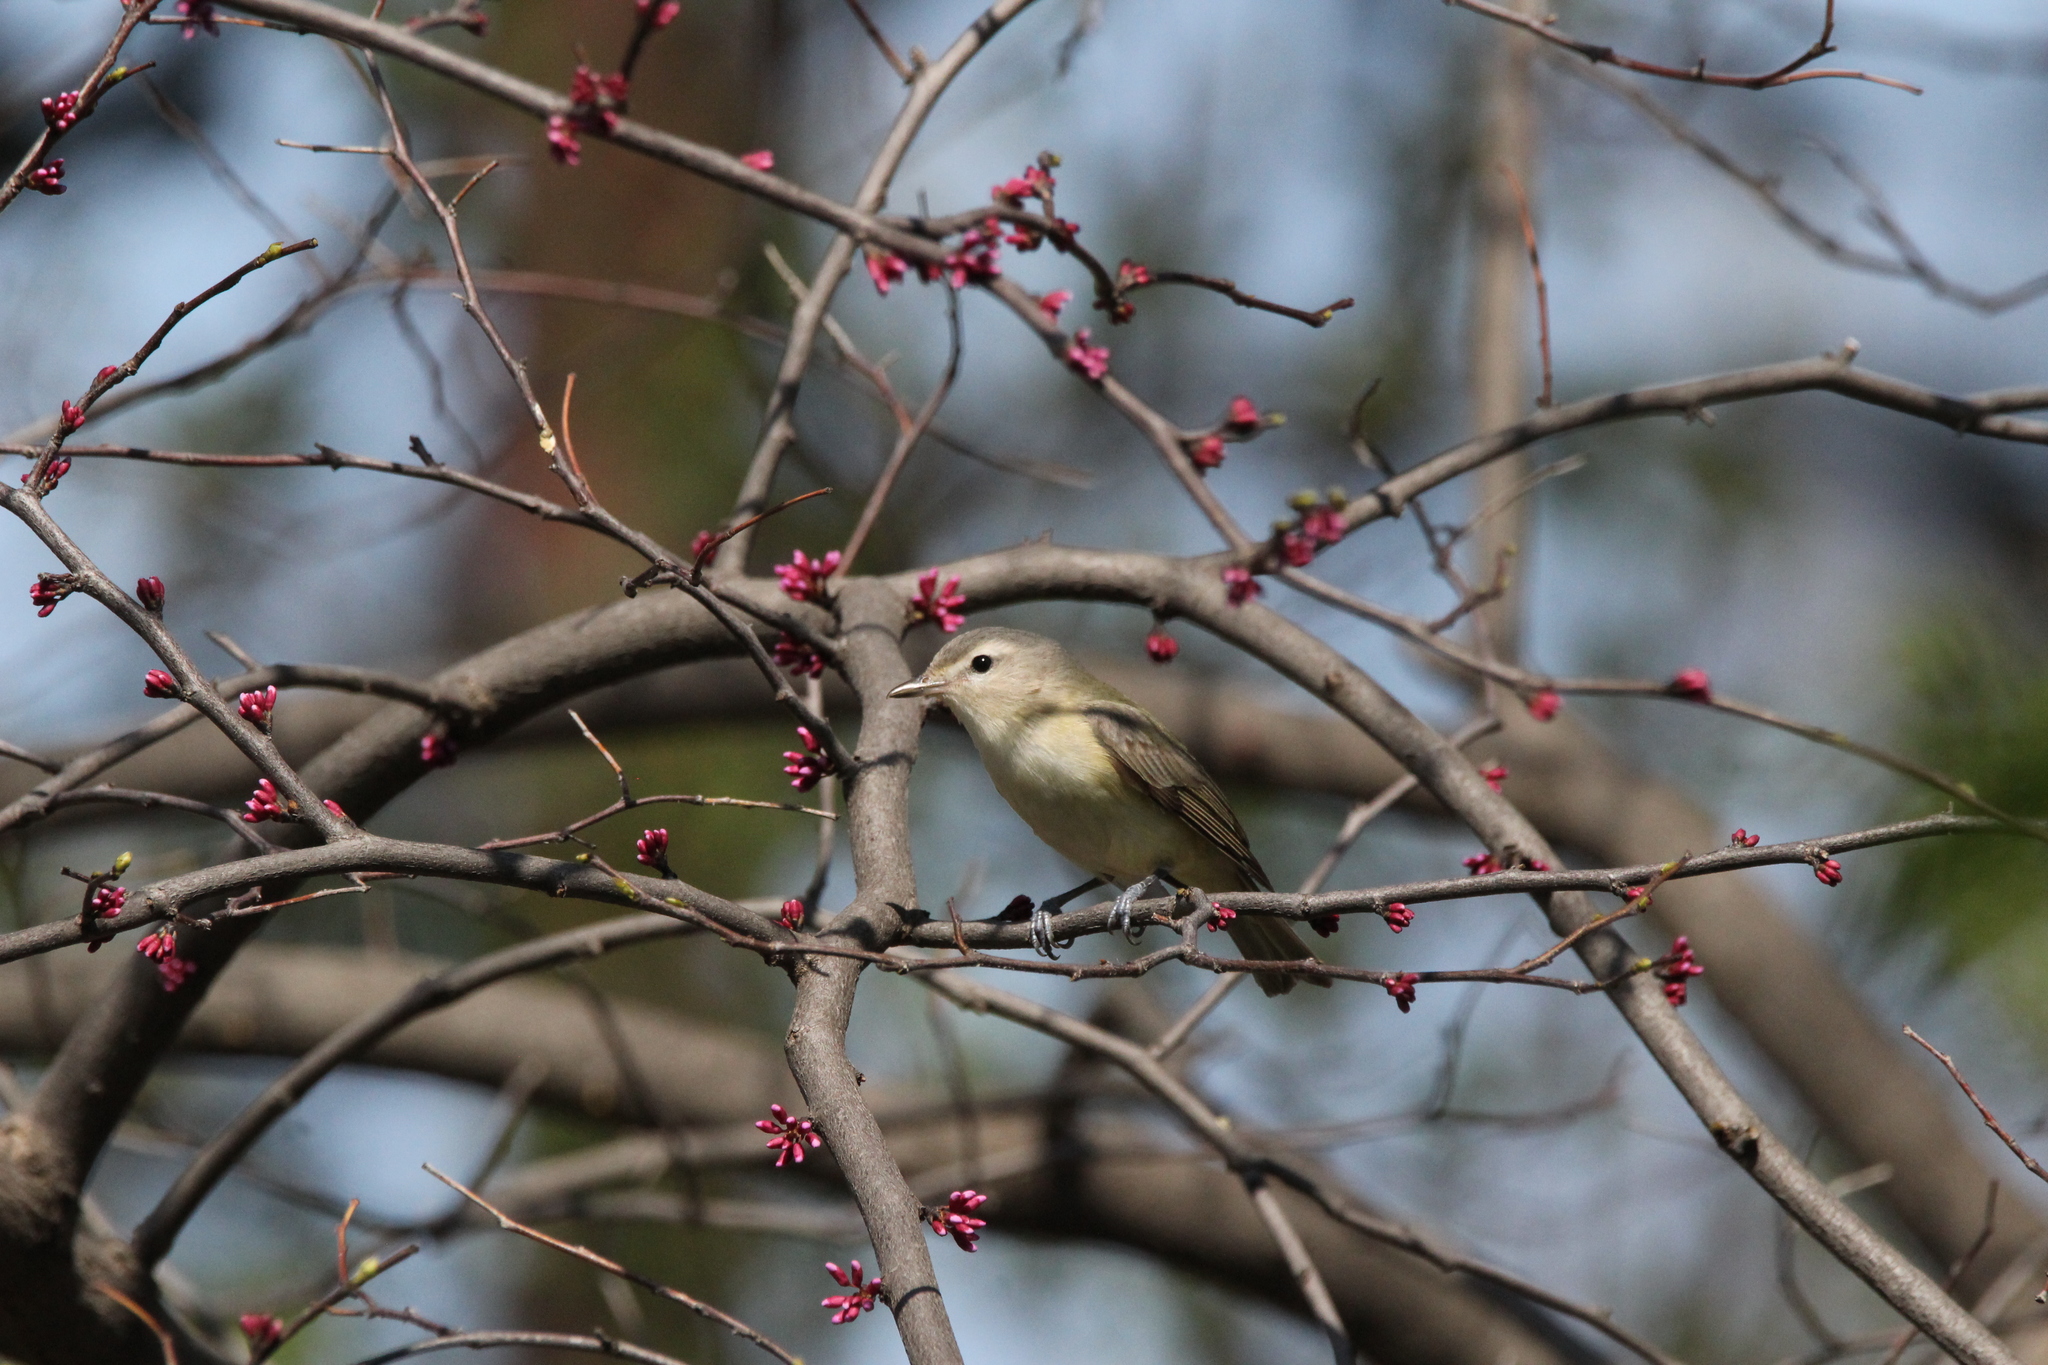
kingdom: Animalia
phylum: Chordata
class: Aves
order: Passeriformes
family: Vireonidae
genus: Vireo
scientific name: Vireo gilvus
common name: Warbling vireo
